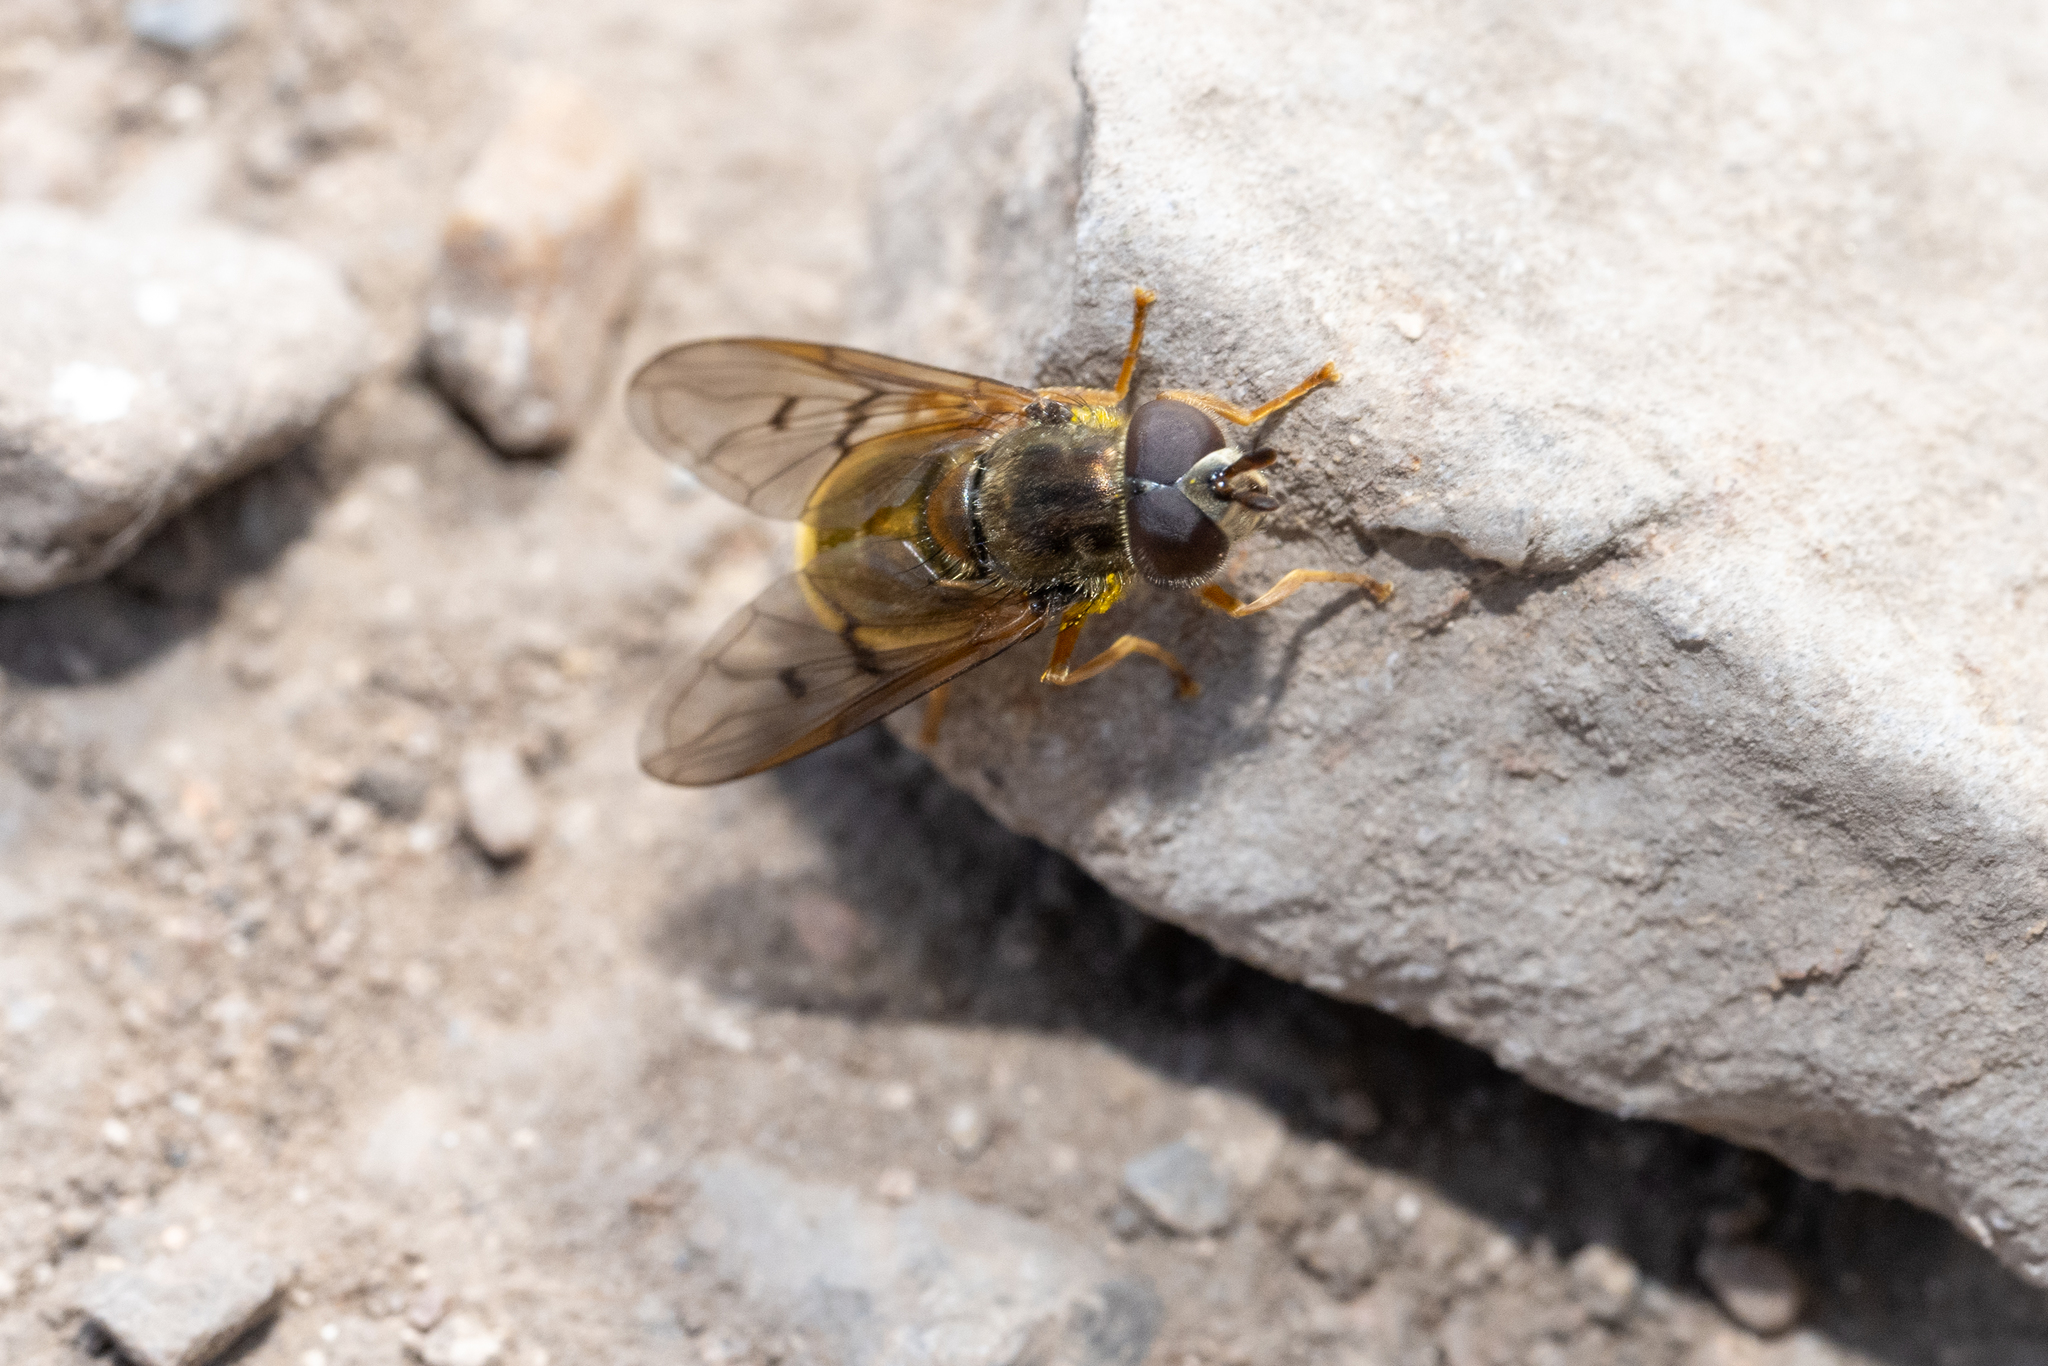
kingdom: Animalia
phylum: Arthropoda
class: Insecta
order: Diptera
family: Syrphidae
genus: Ferdinandea
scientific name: Ferdinandea croesus
